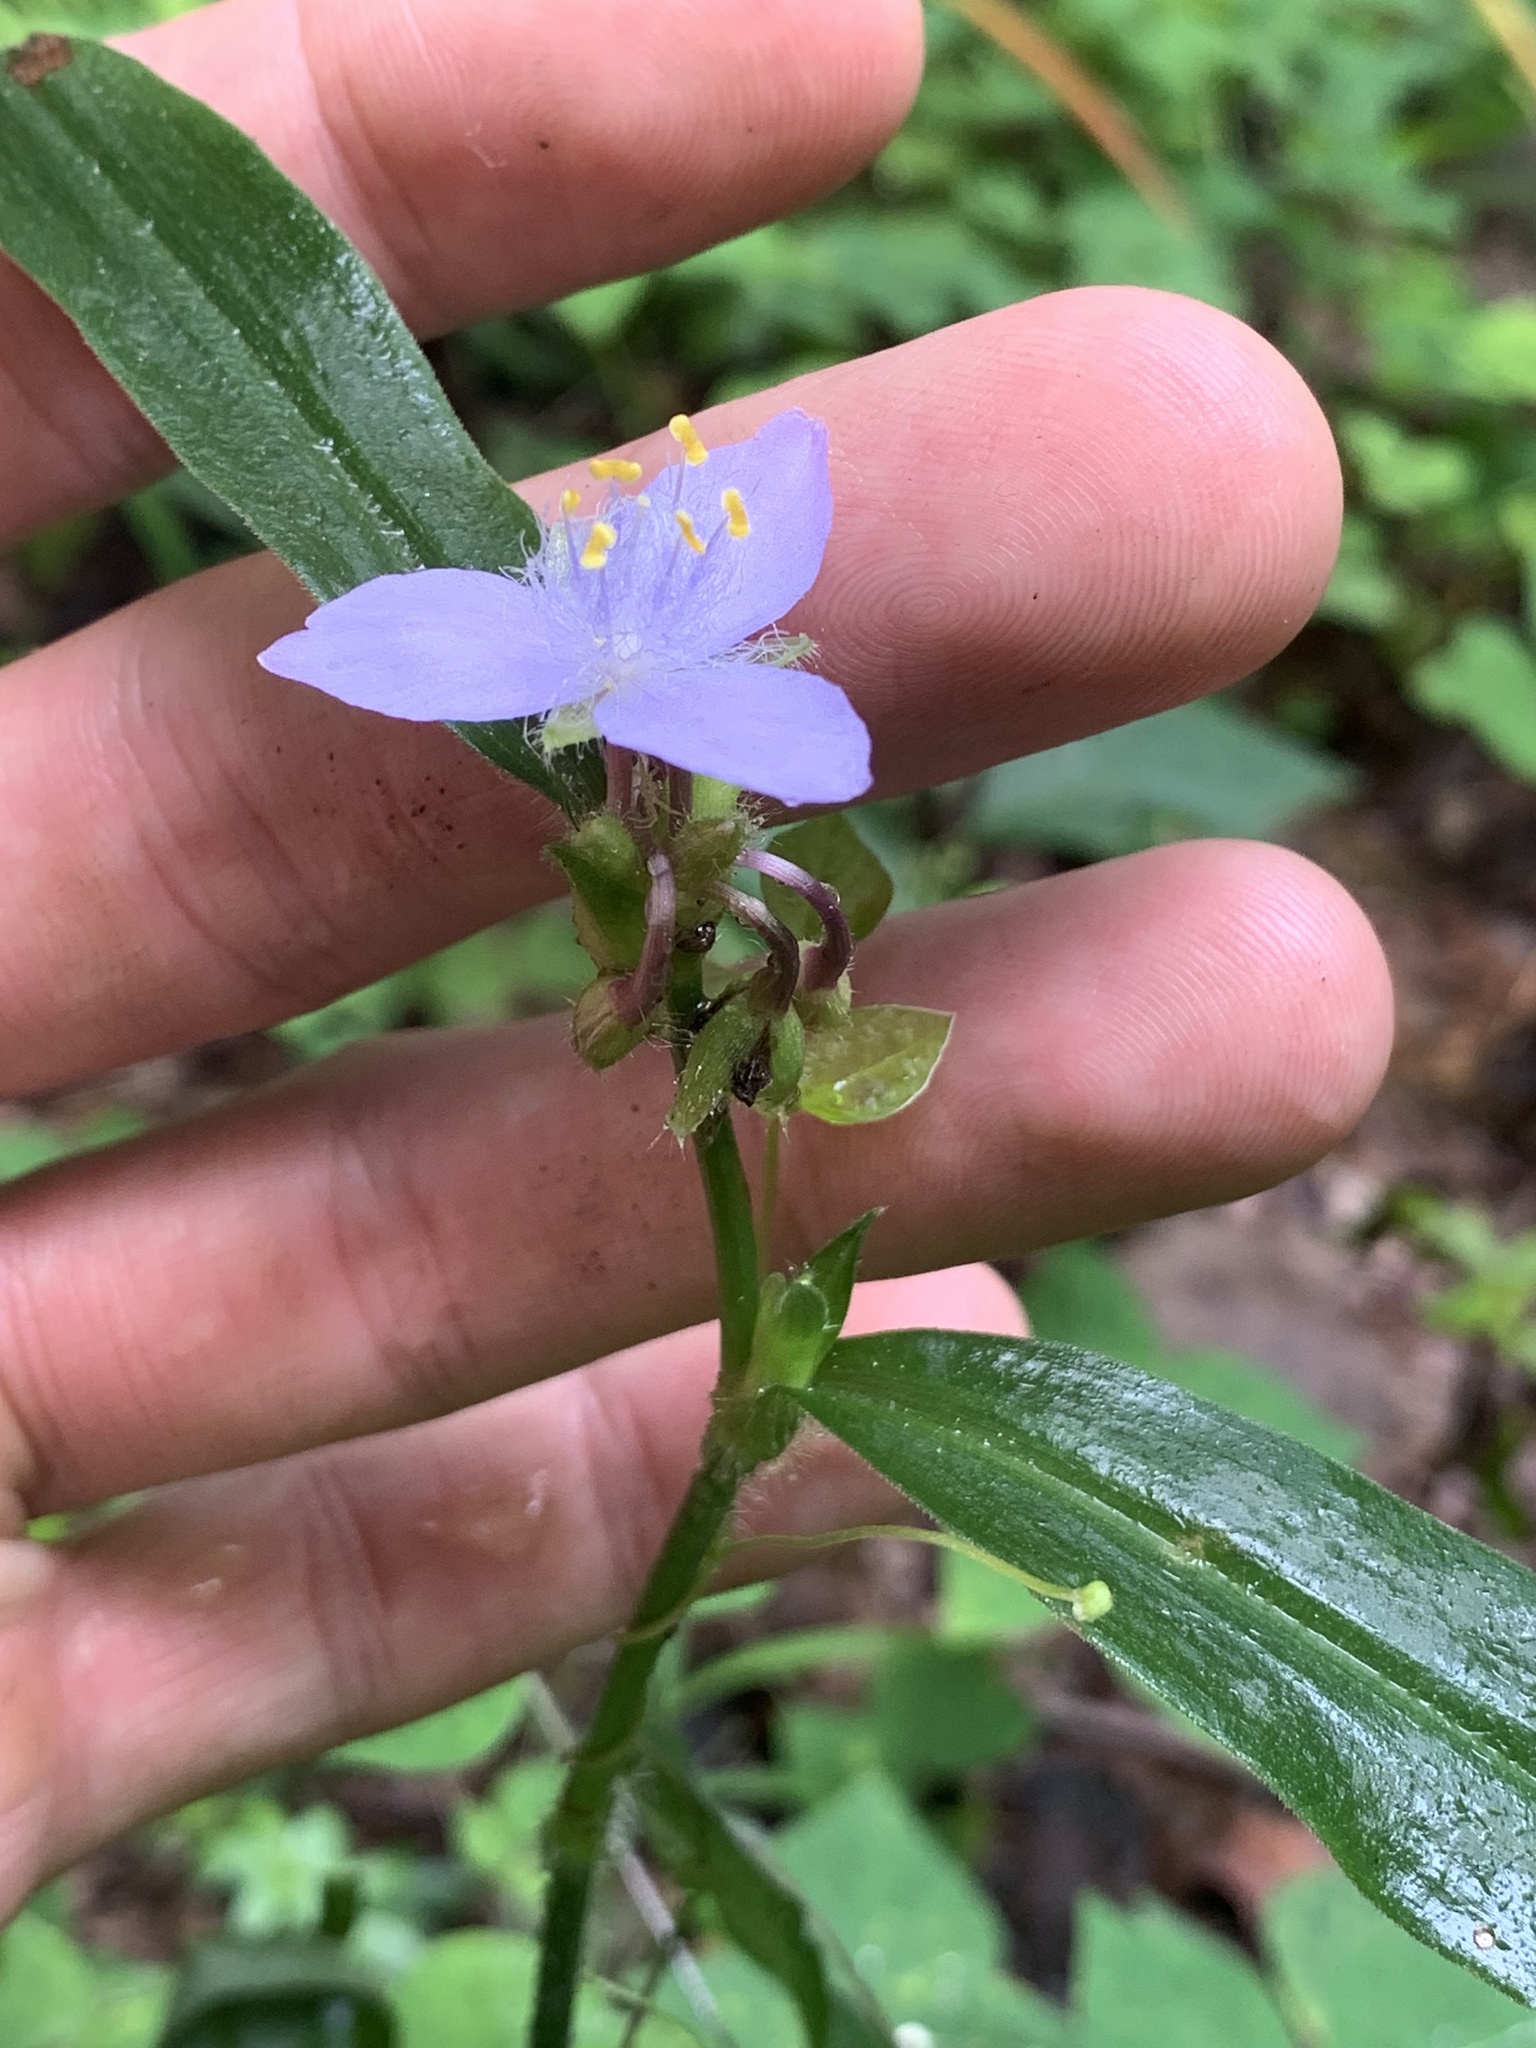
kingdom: Plantae
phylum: Tracheophyta
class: Liliopsida
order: Commelinales
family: Commelinaceae
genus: Tradescantia
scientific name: Tradescantia subaspera
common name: Wide-leaf spiderwort
